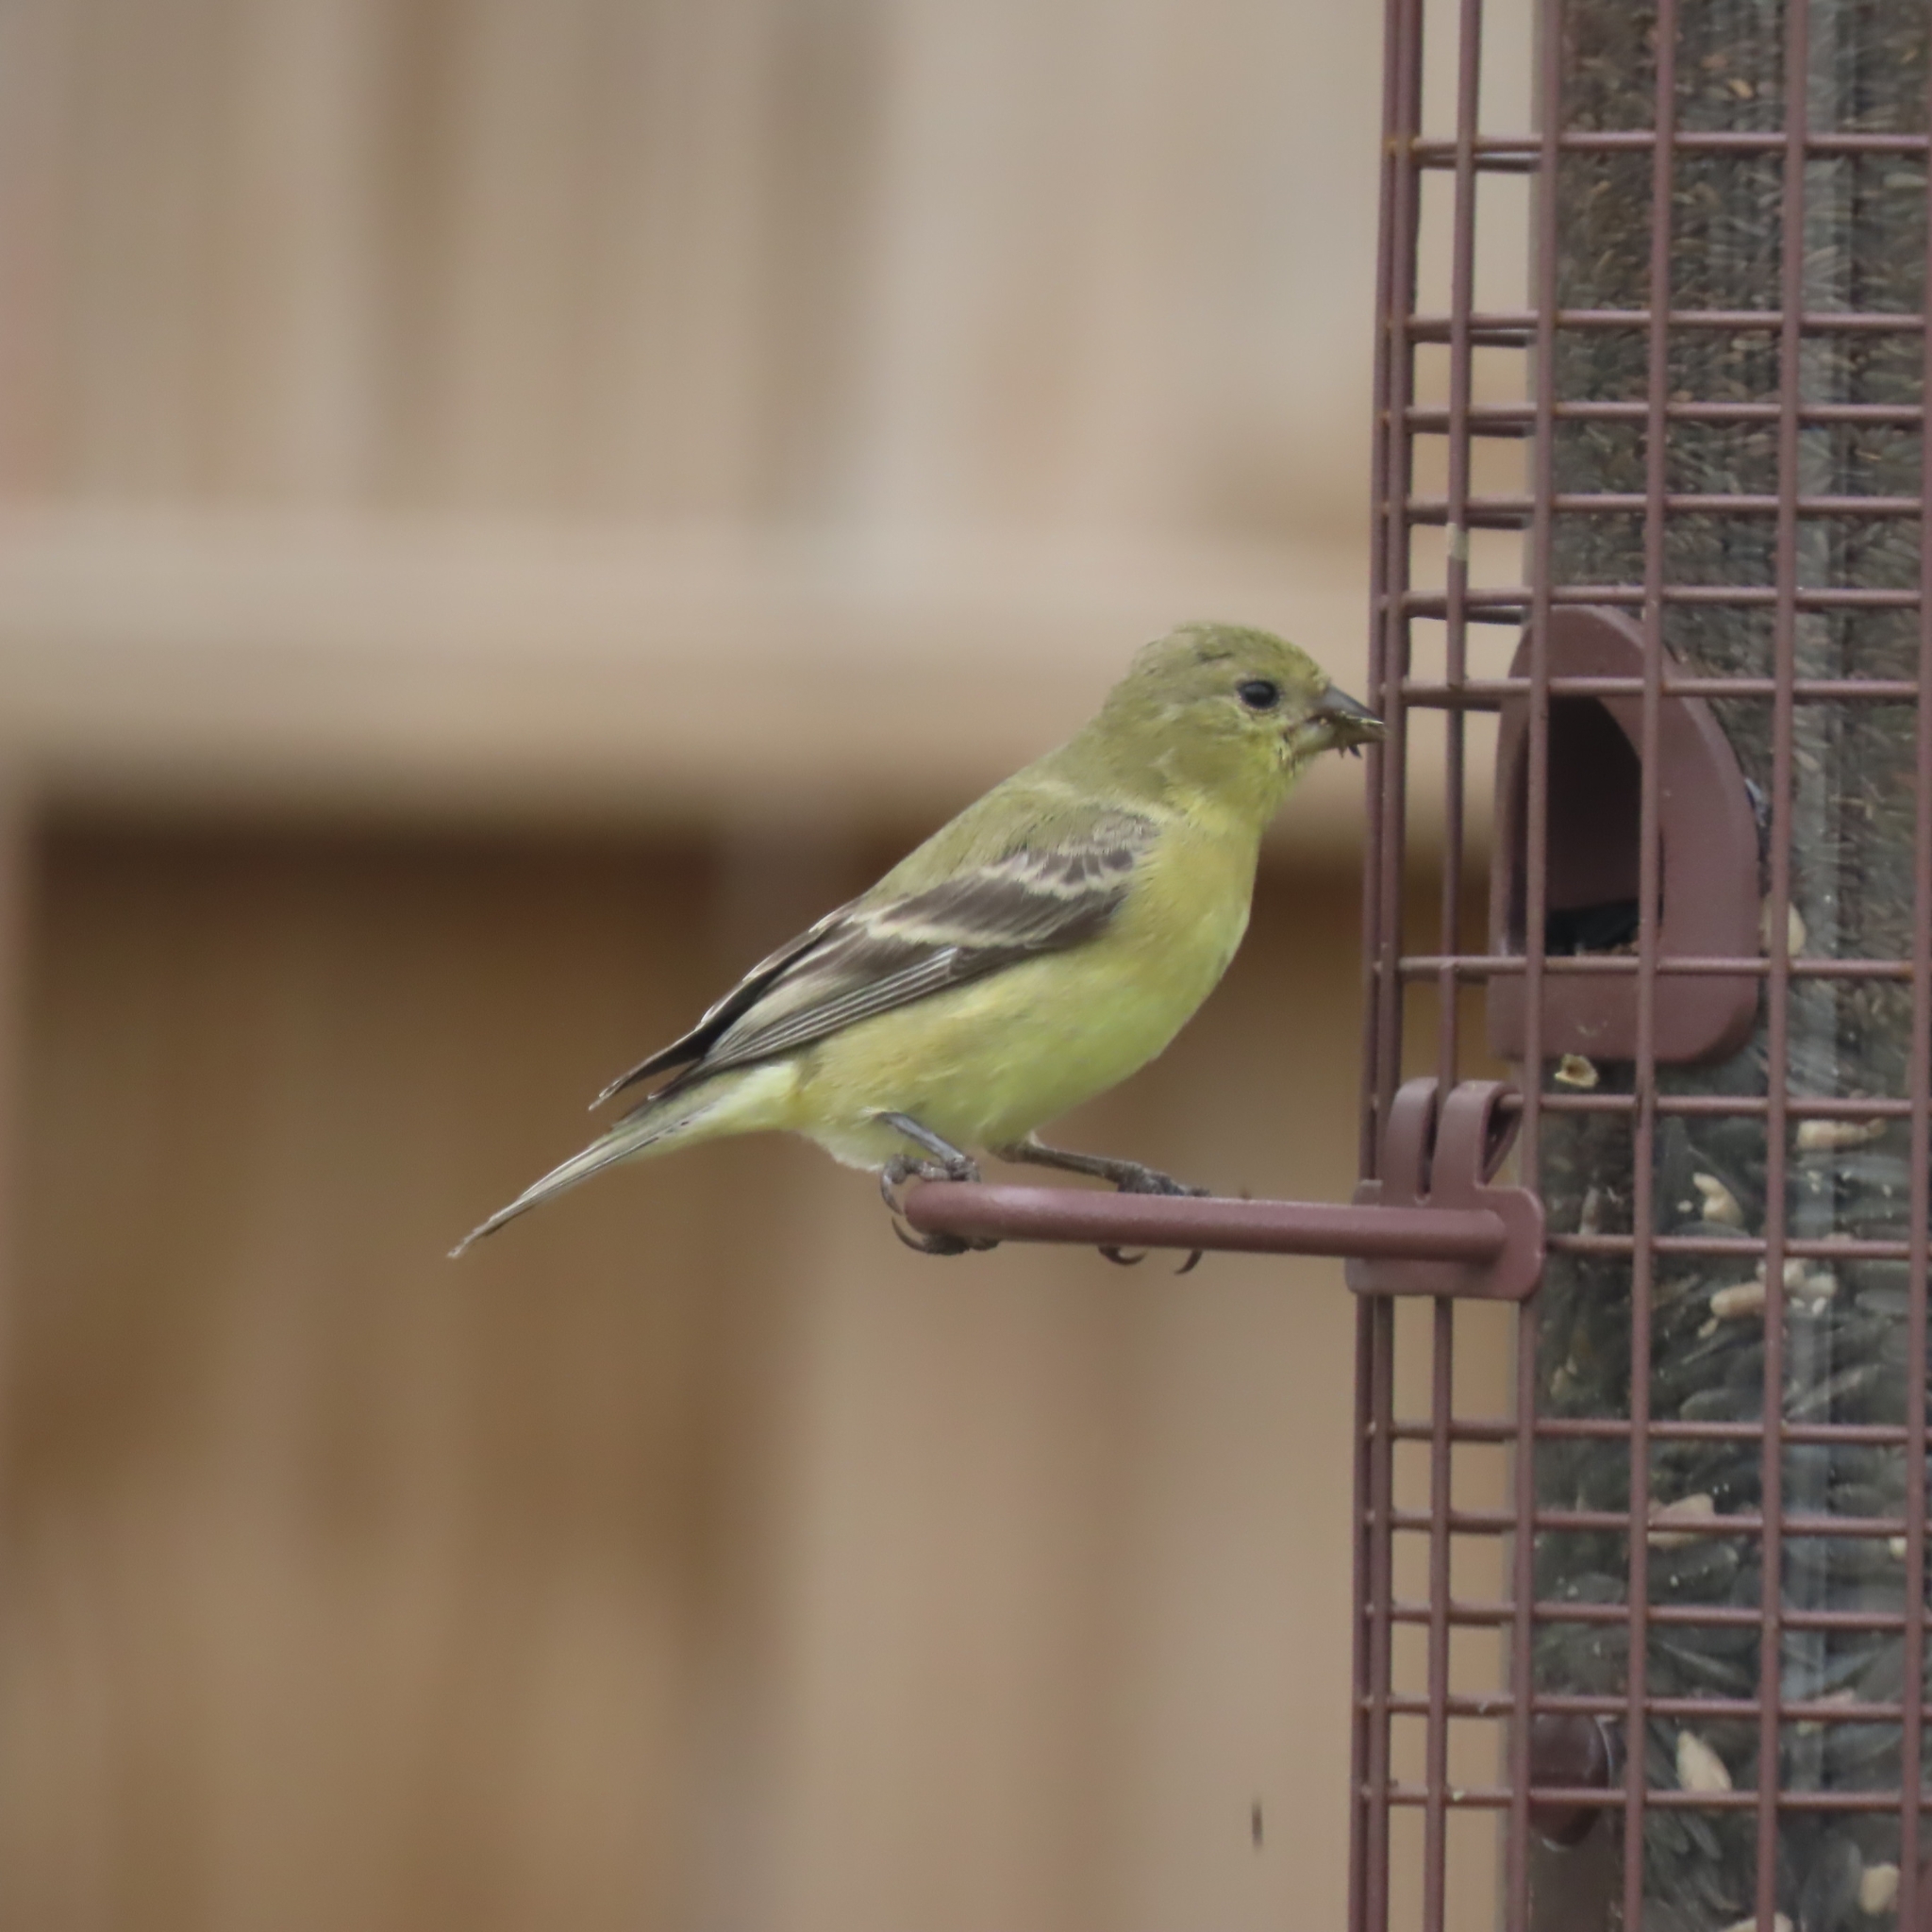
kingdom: Animalia
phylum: Chordata
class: Aves
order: Passeriformes
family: Fringillidae
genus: Spinus
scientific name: Spinus psaltria
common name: Lesser goldfinch
